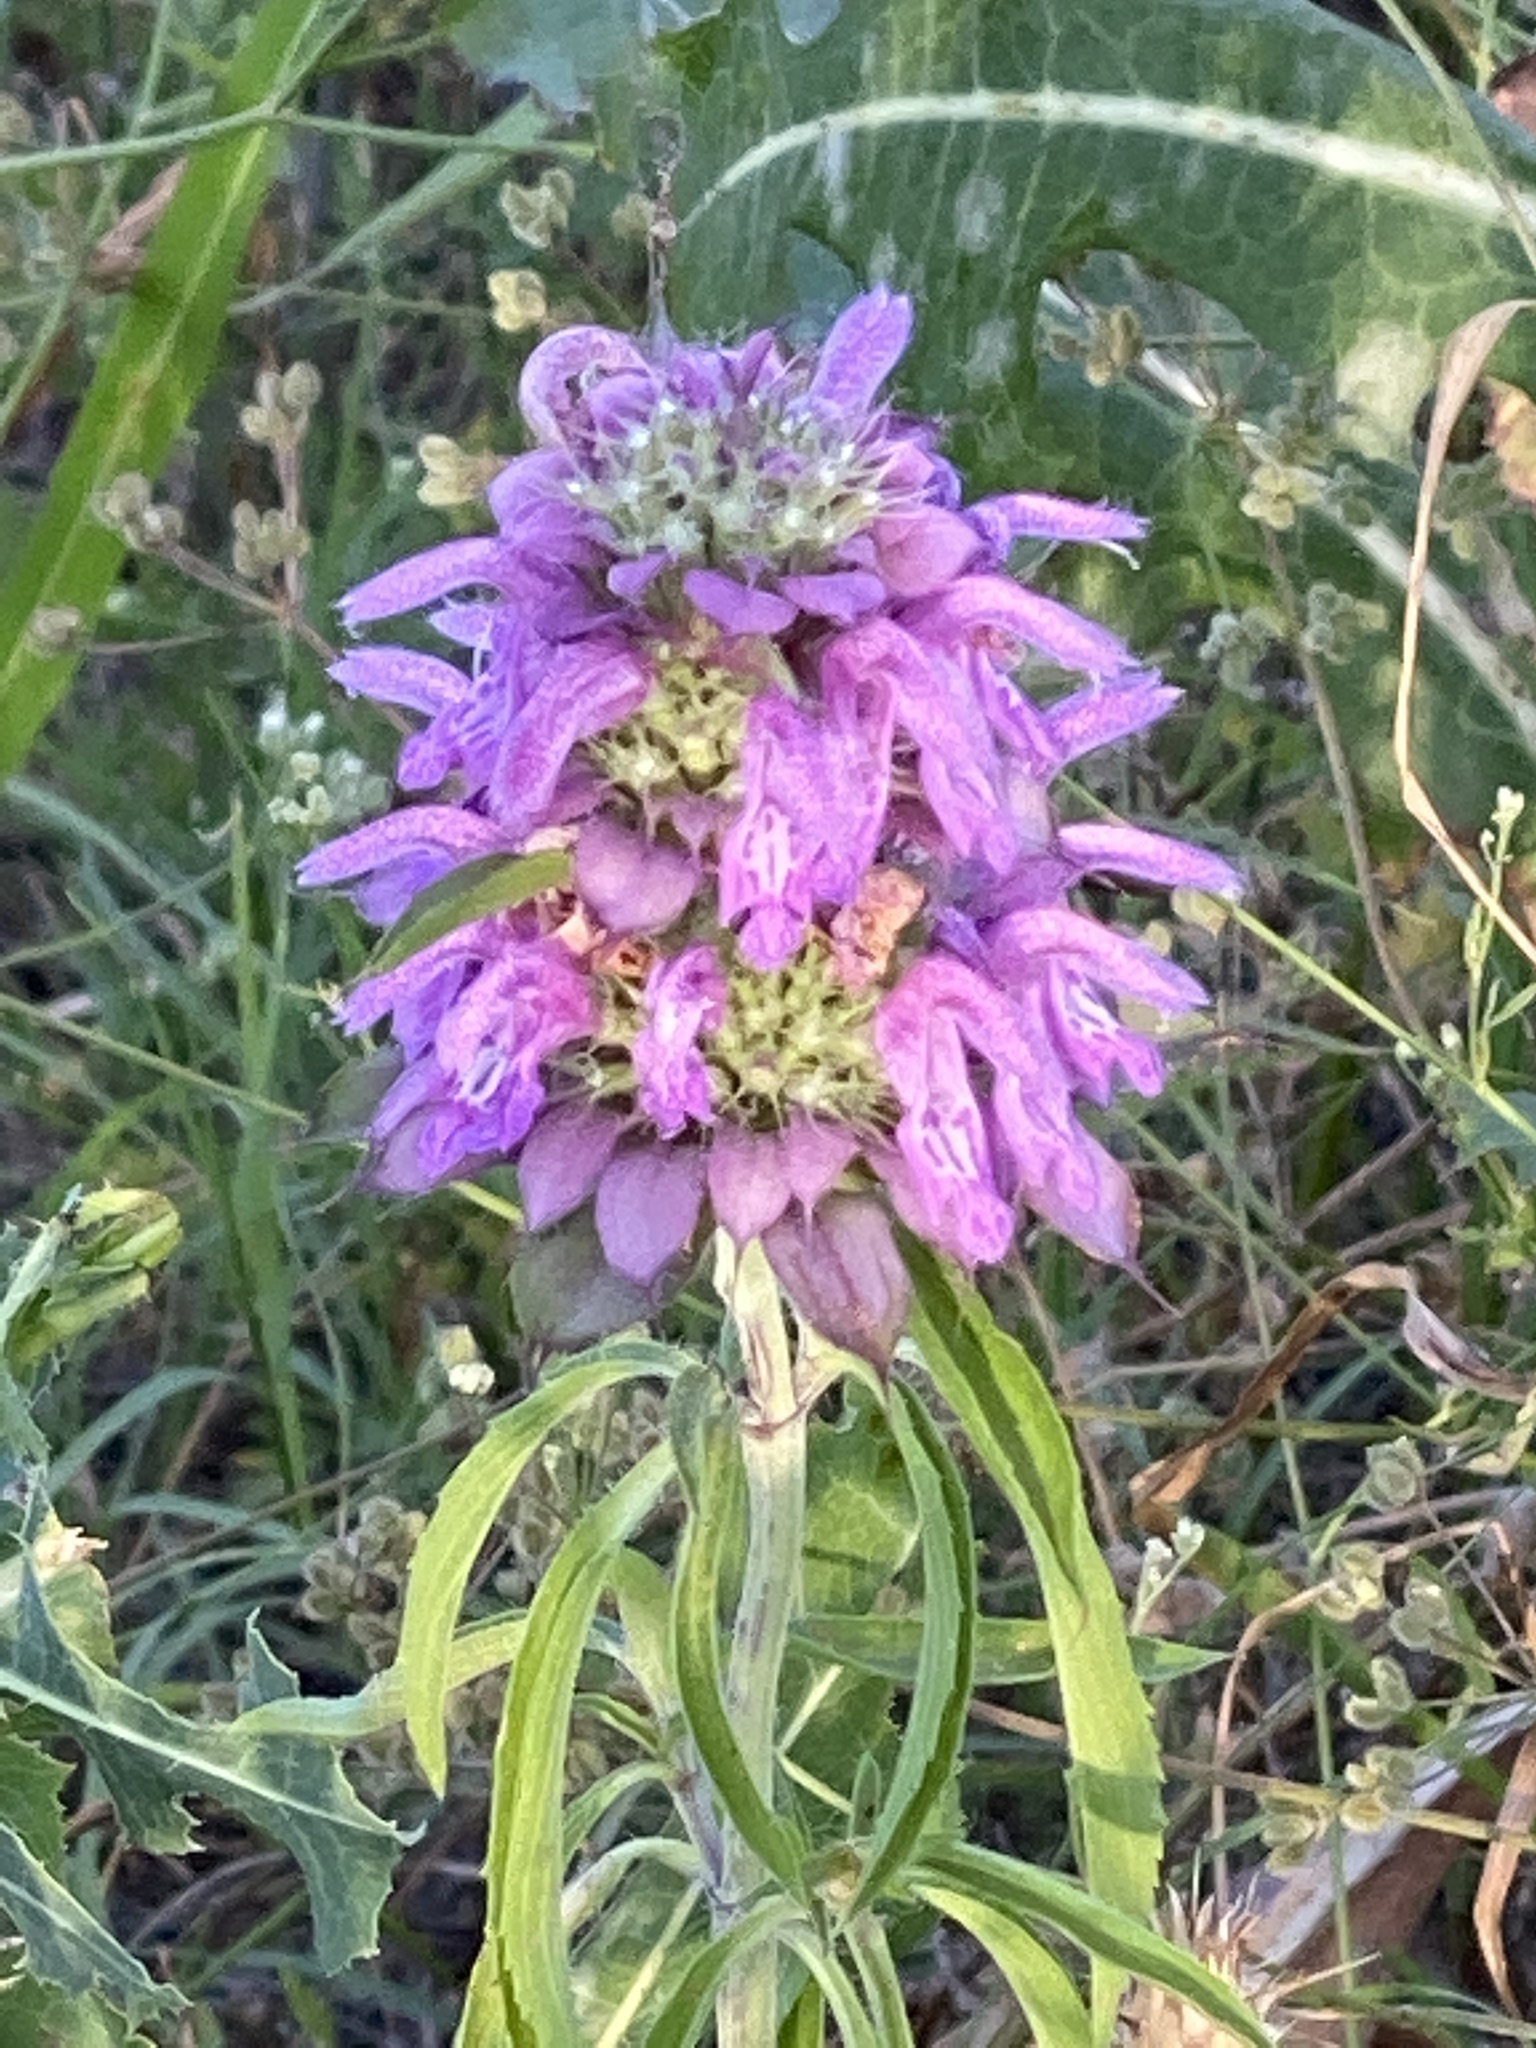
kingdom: Plantae
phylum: Tracheophyta
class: Magnoliopsida
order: Lamiales
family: Lamiaceae
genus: Monarda
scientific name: Monarda citriodora
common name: Lemon beebalm
